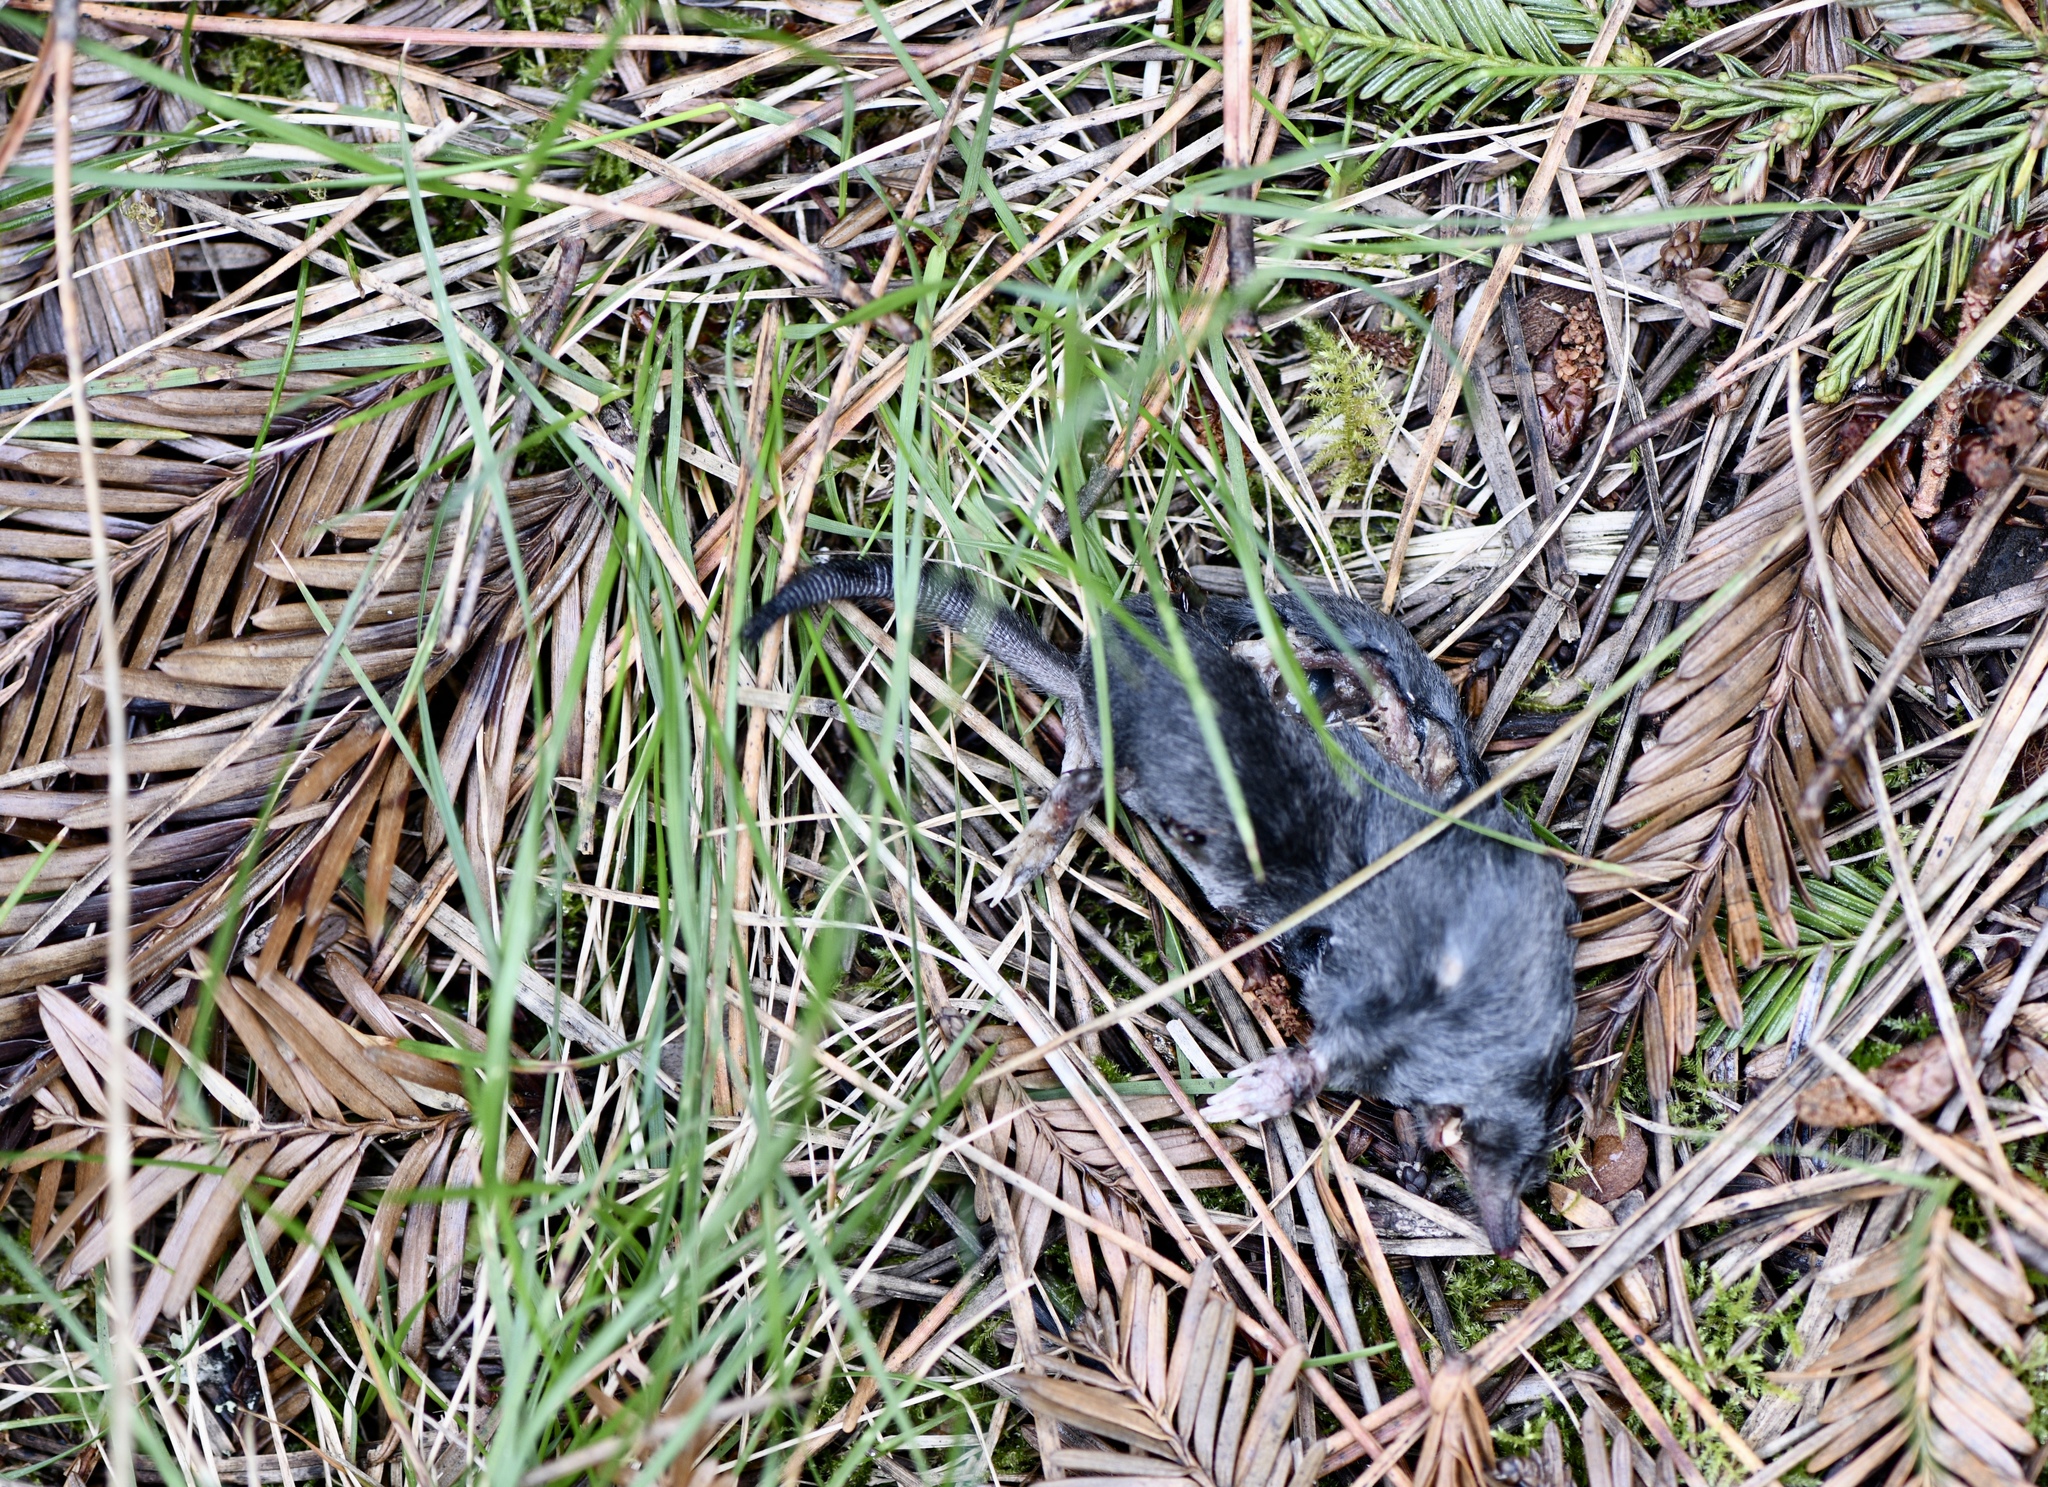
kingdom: Animalia
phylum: Chordata
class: Mammalia
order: Soricomorpha
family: Talpidae
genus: Neurotrichus
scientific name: Neurotrichus gibbsii
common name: American shrew mole
